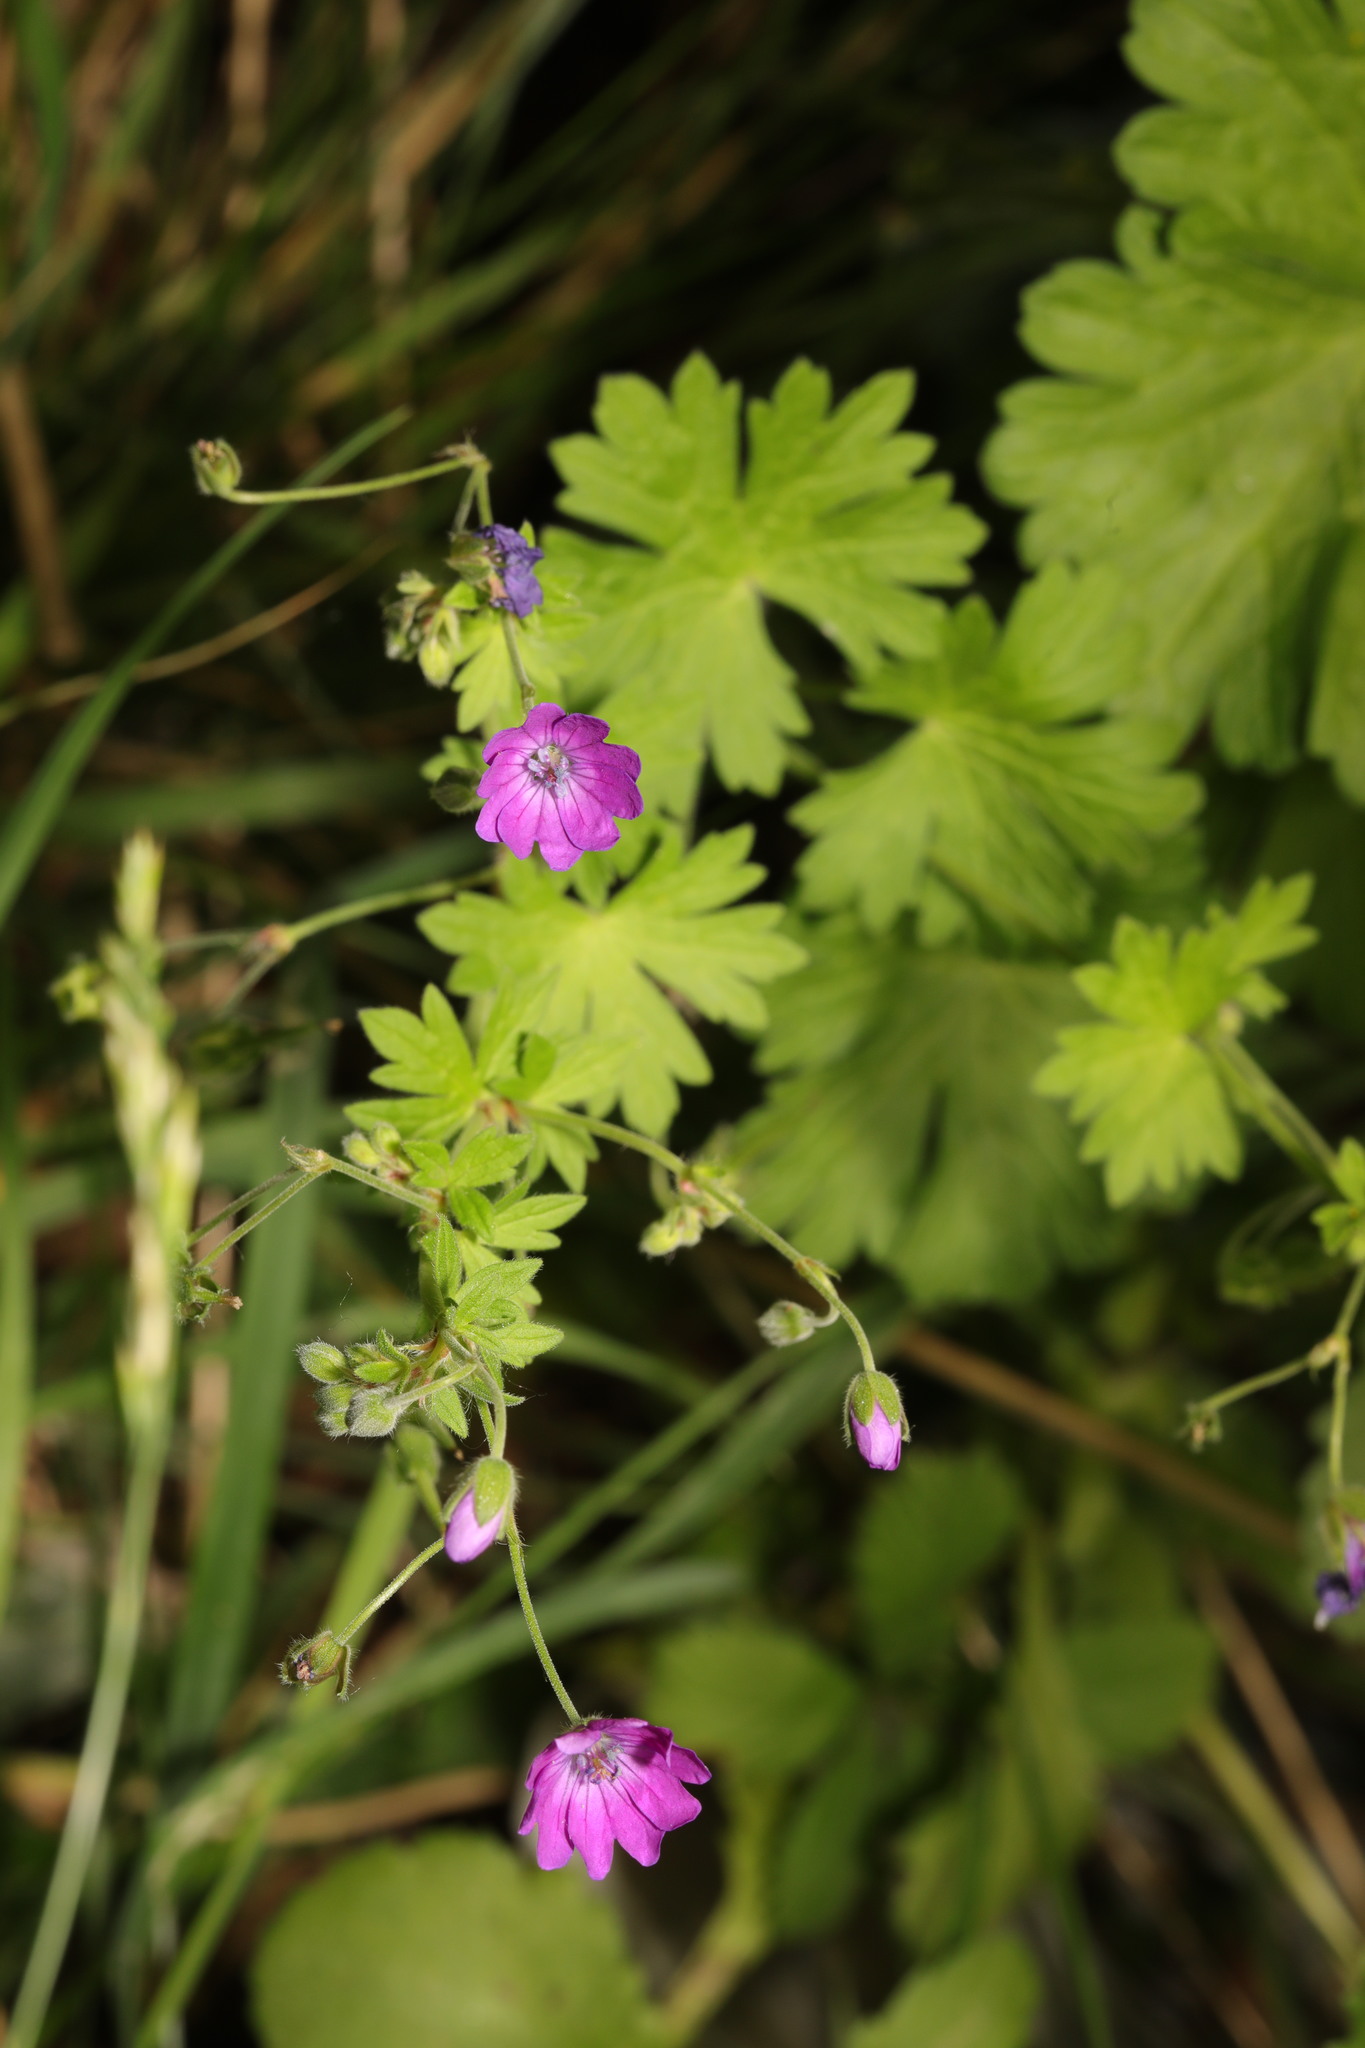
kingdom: Plantae
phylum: Tracheophyta
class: Magnoliopsida
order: Geraniales
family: Geraniaceae
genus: Geranium
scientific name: Geranium pyrenaicum
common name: Hedgerow crane's-bill
